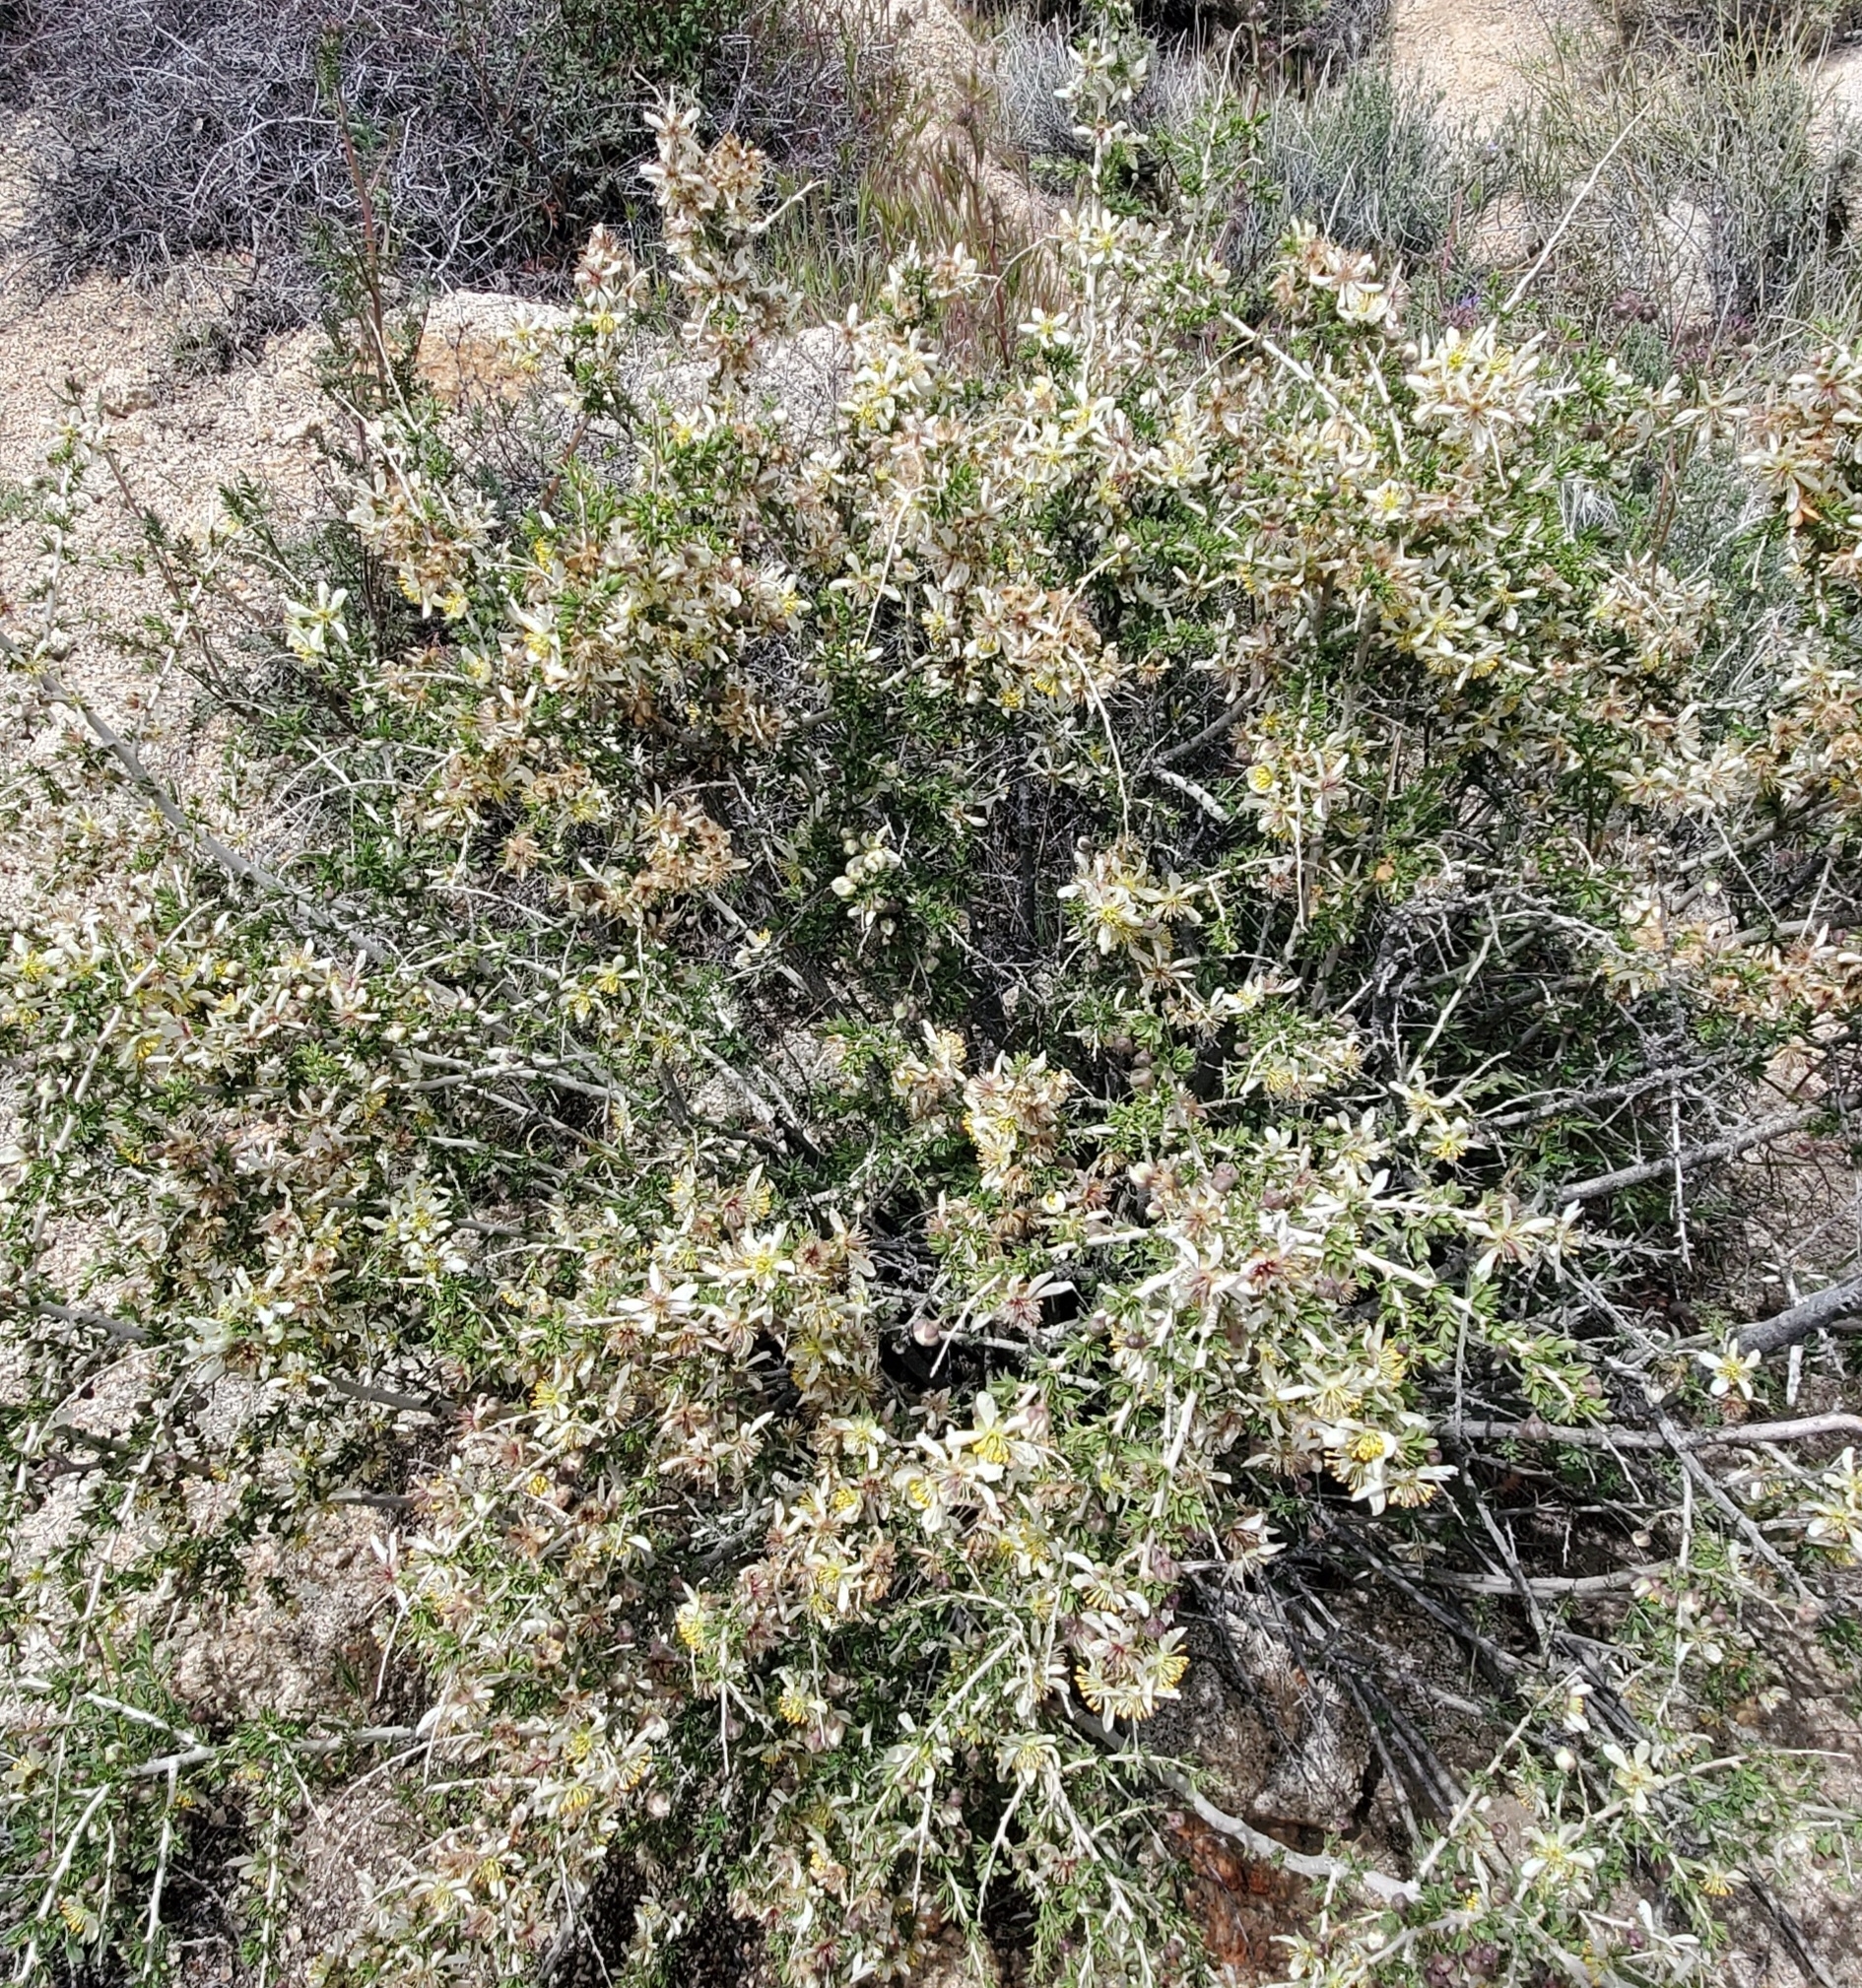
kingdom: Plantae
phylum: Tracheophyta
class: Magnoliopsida
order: Crossosomatales
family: Crossosomataceae
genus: Crossosoma
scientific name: Crossosoma bigelovii
